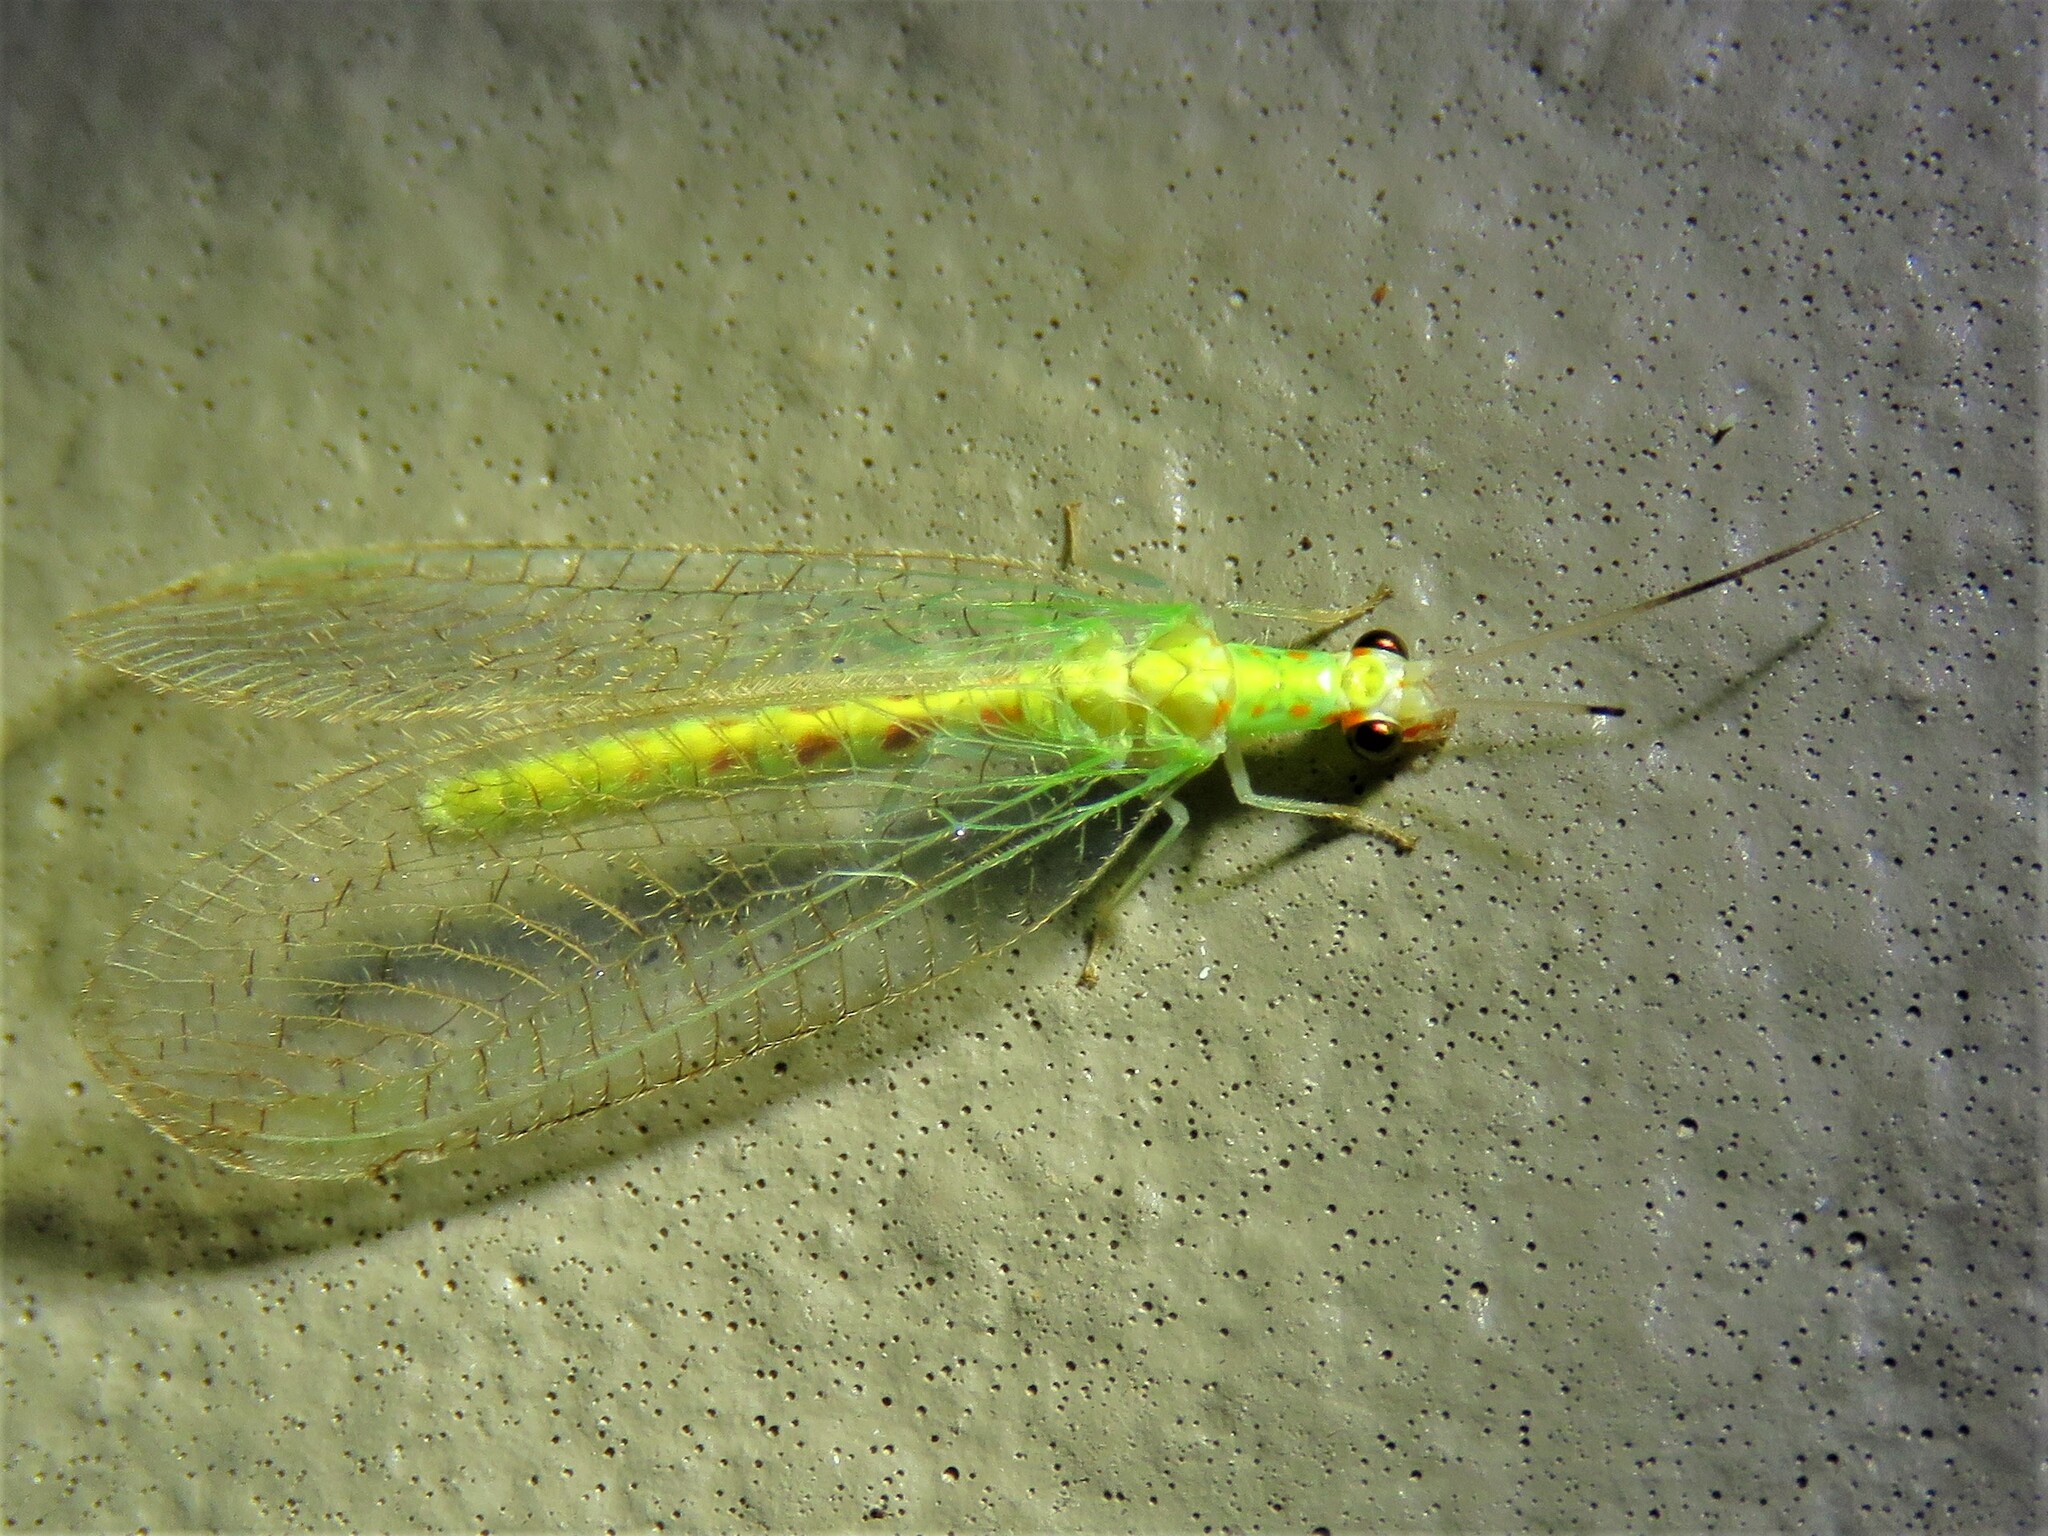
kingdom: Animalia
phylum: Arthropoda
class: Insecta
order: Neuroptera
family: Chrysopidae
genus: Chrysopa
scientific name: Chrysopa quadripunctata
